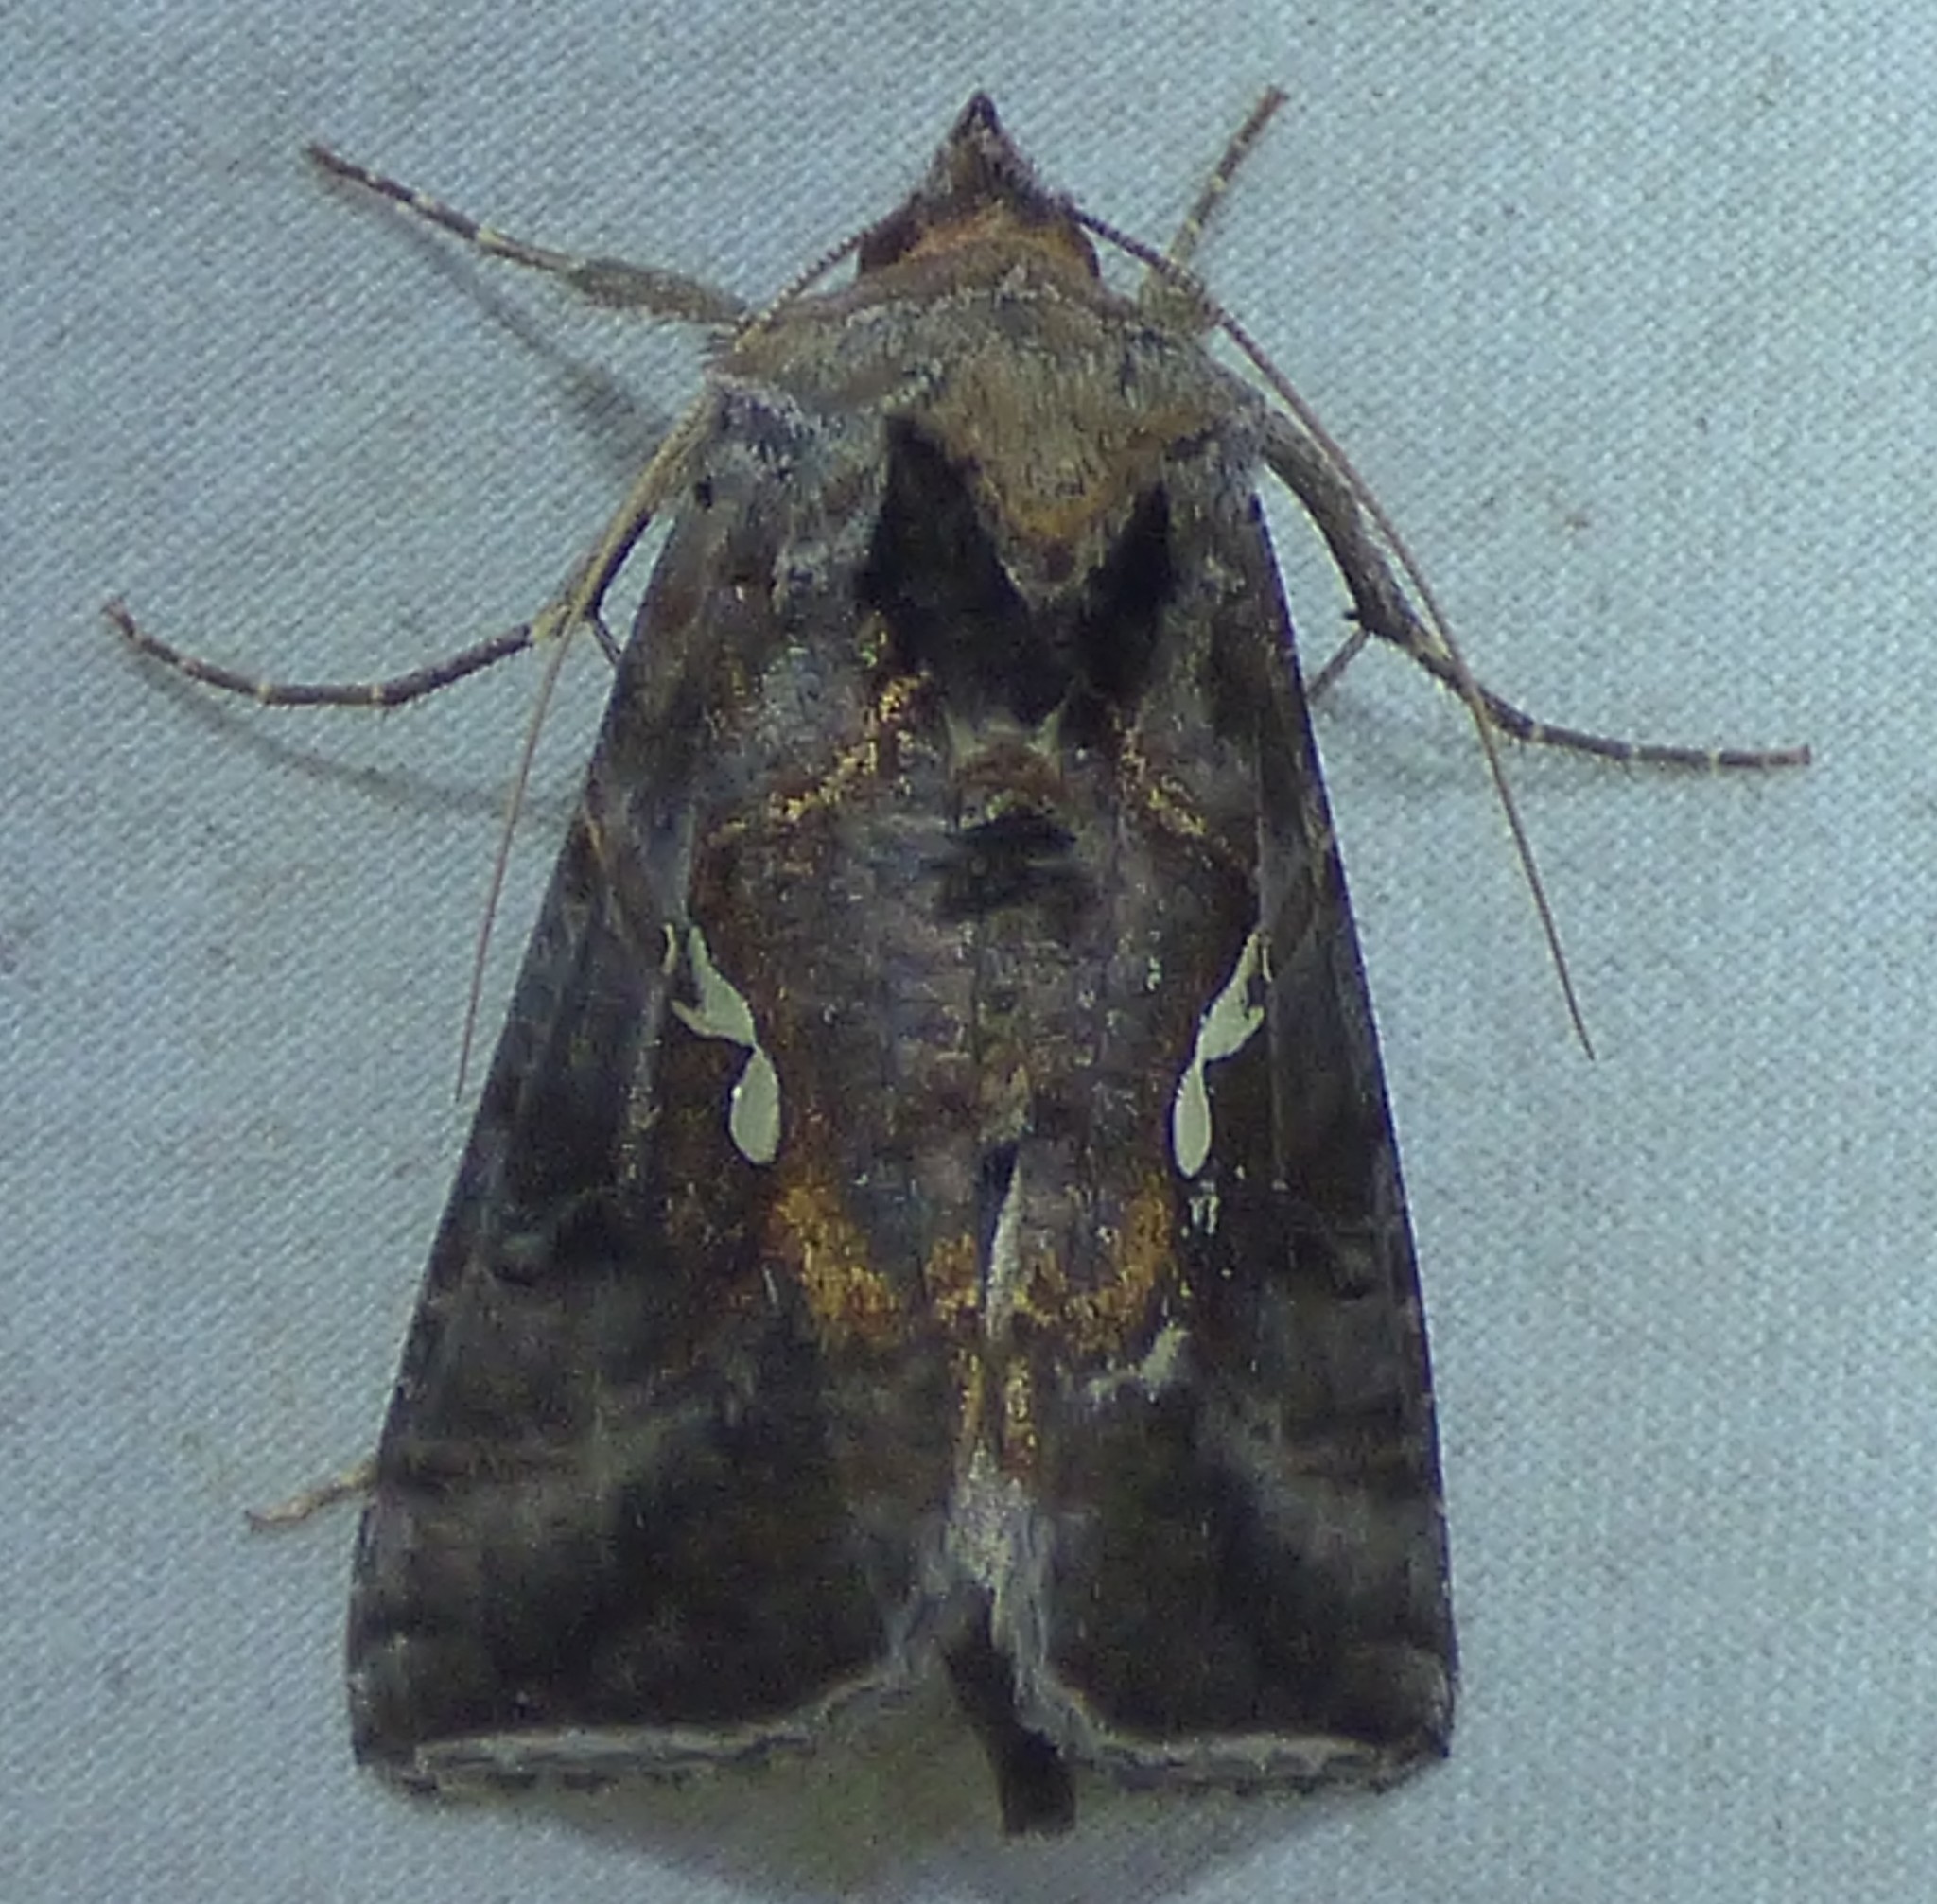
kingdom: Animalia
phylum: Arthropoda
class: Insecta
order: Lepidoptera
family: Noctuidae
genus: Autographa
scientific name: Autographa precationis
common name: Common looper moth
